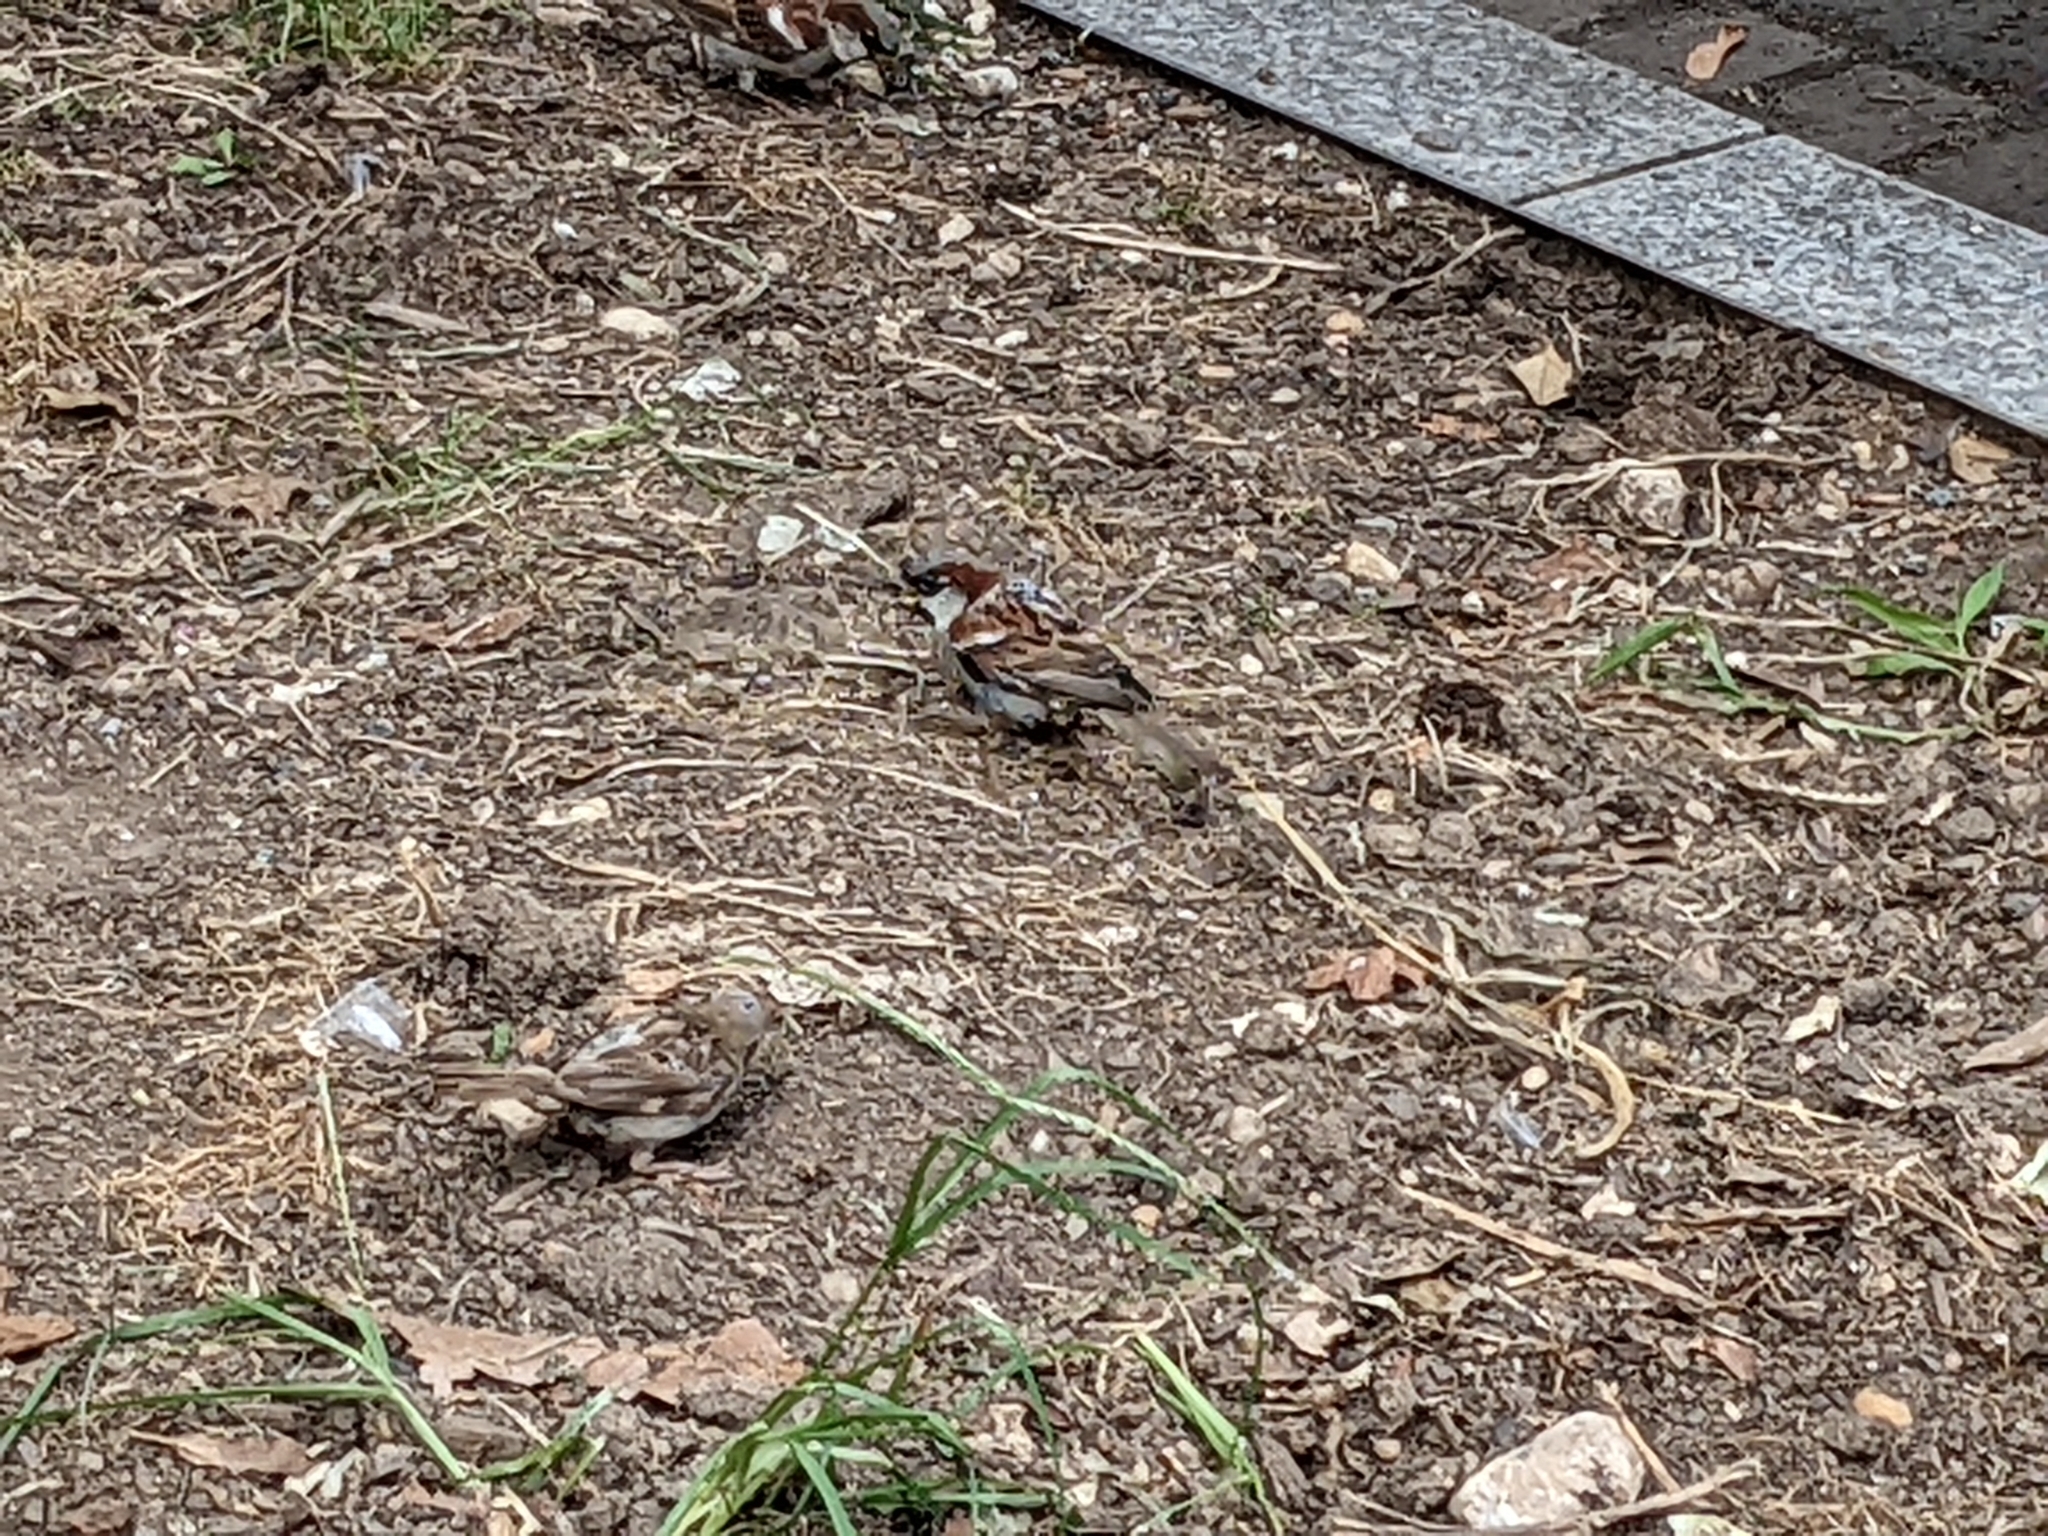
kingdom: Animalia
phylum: Chordata
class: Aves
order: Passeriformes
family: Passeridae
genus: Passer
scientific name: Passer domesticus
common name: House sparrow
